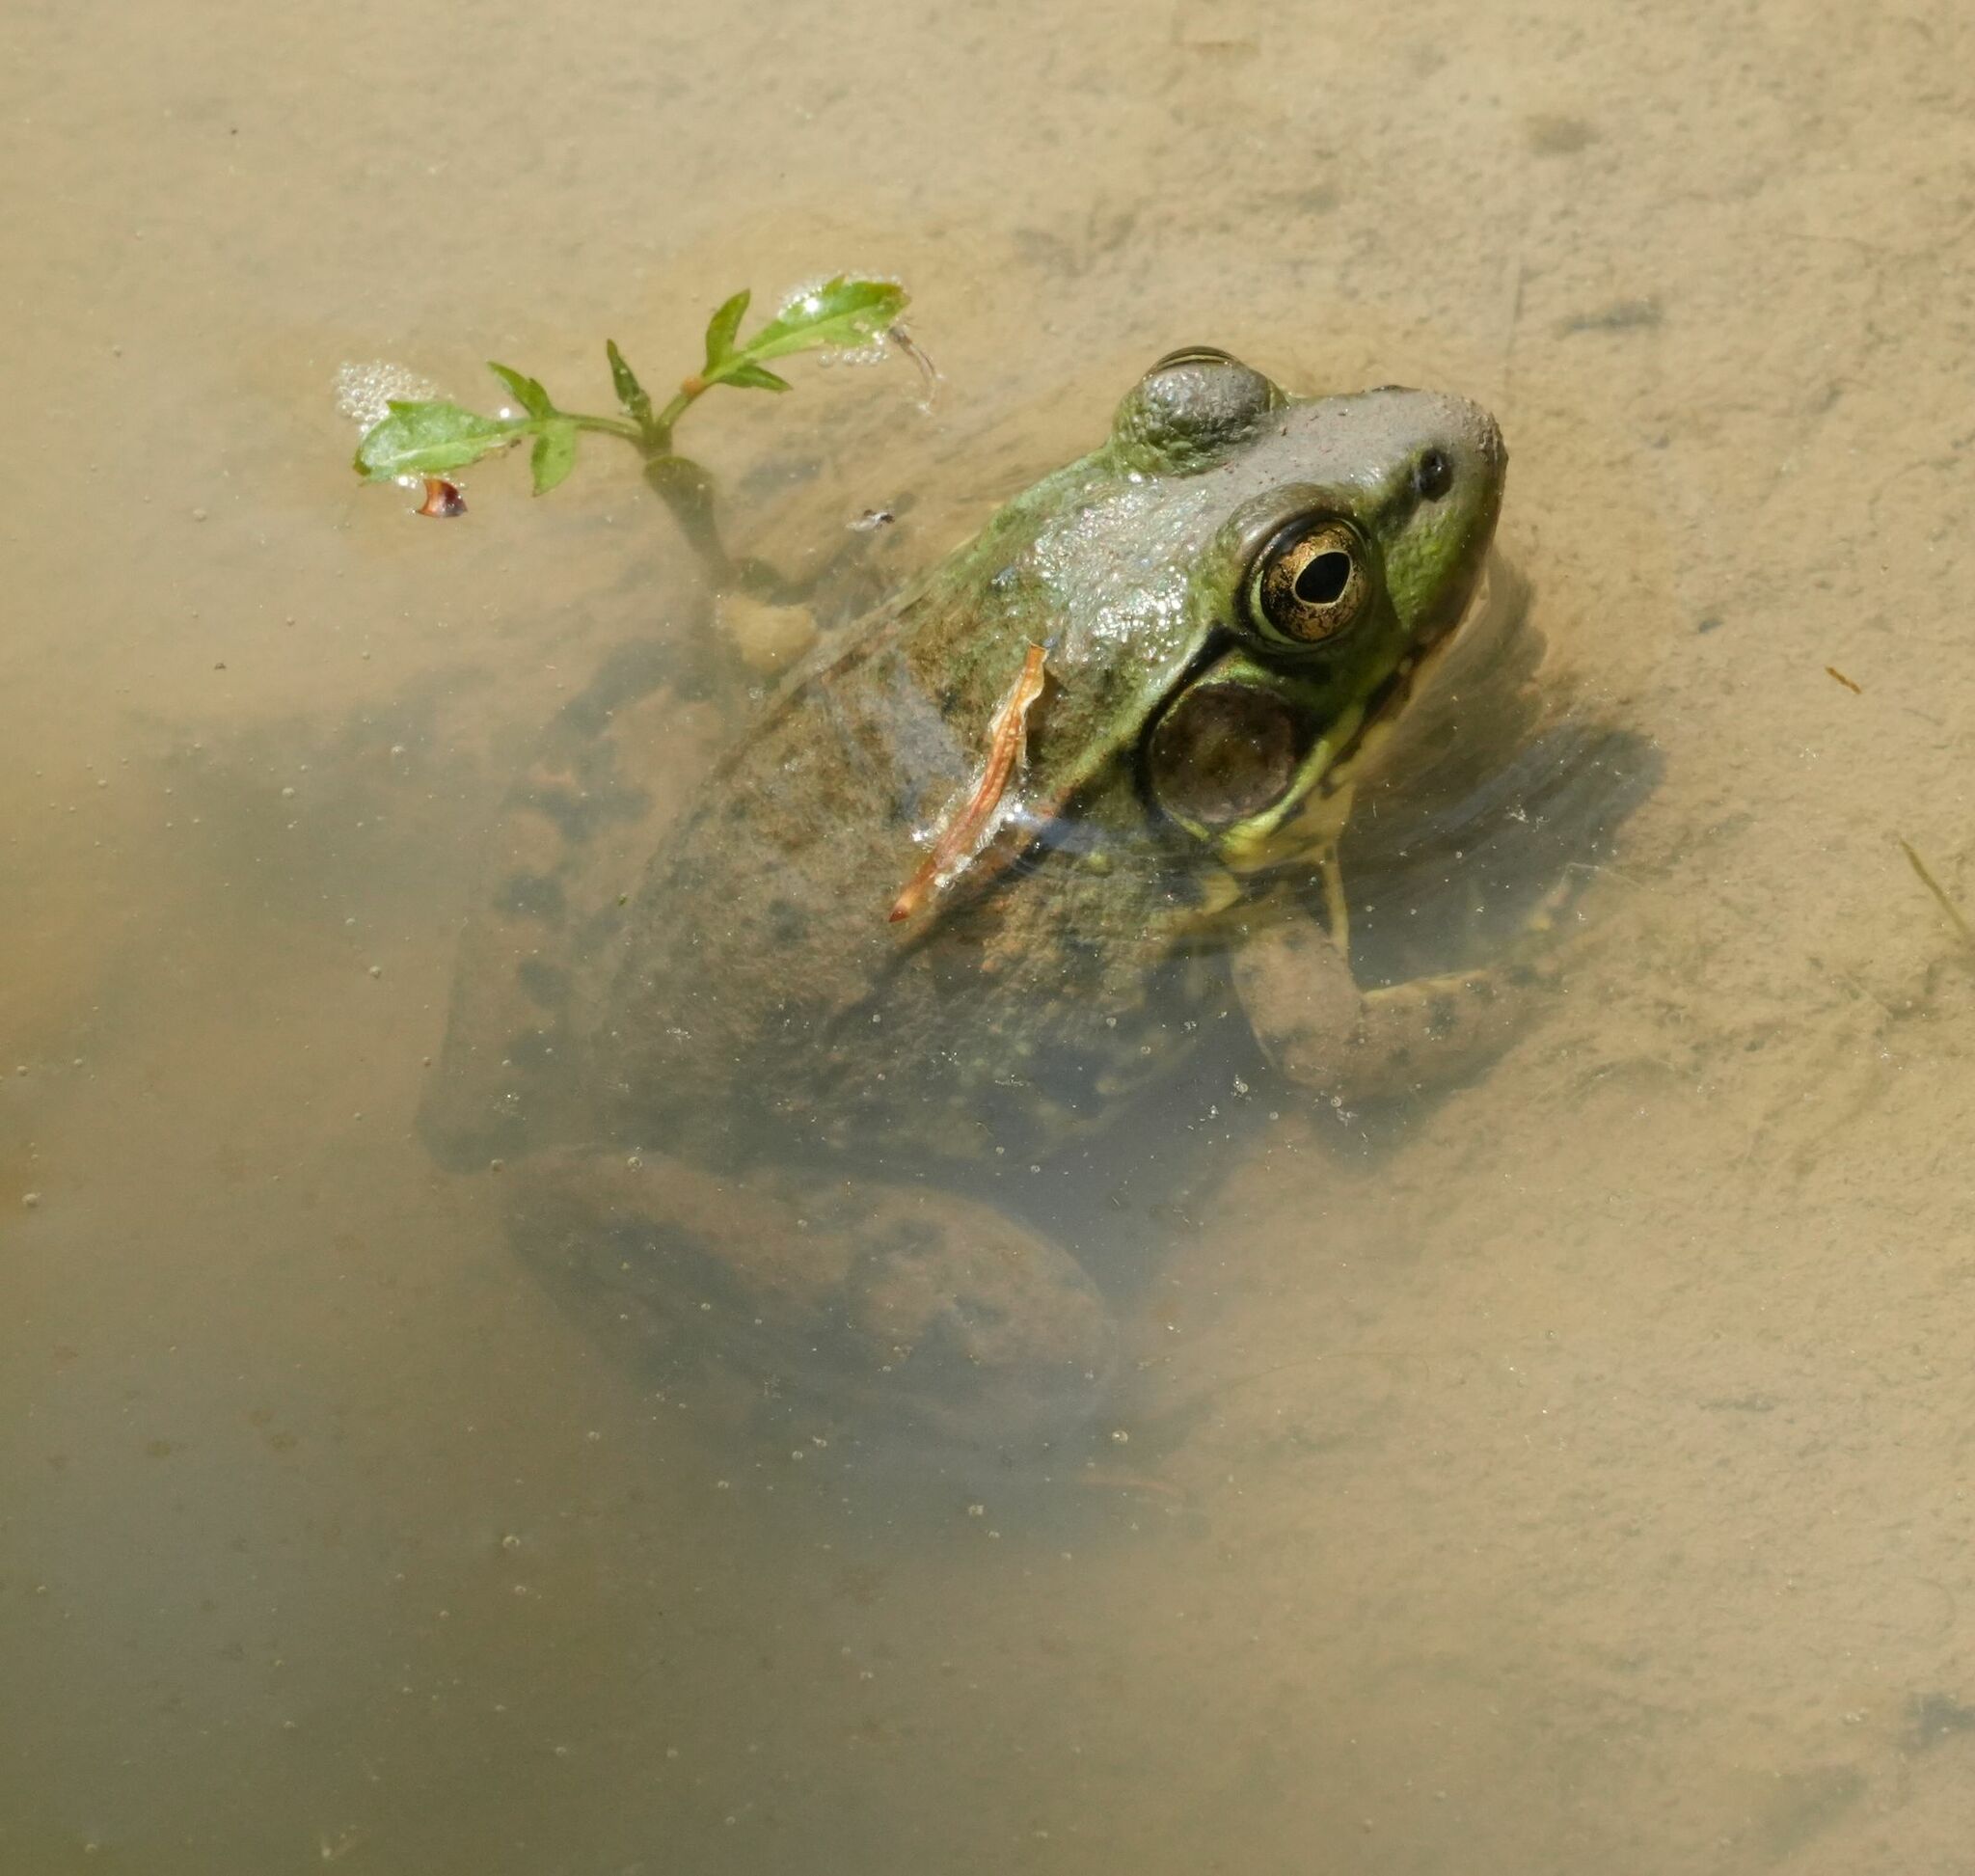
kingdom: Animalia
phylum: Chordata
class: Amphibia
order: Anura
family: Ranidae
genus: Lithobates
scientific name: Lithobates clamitans
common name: Green frog
